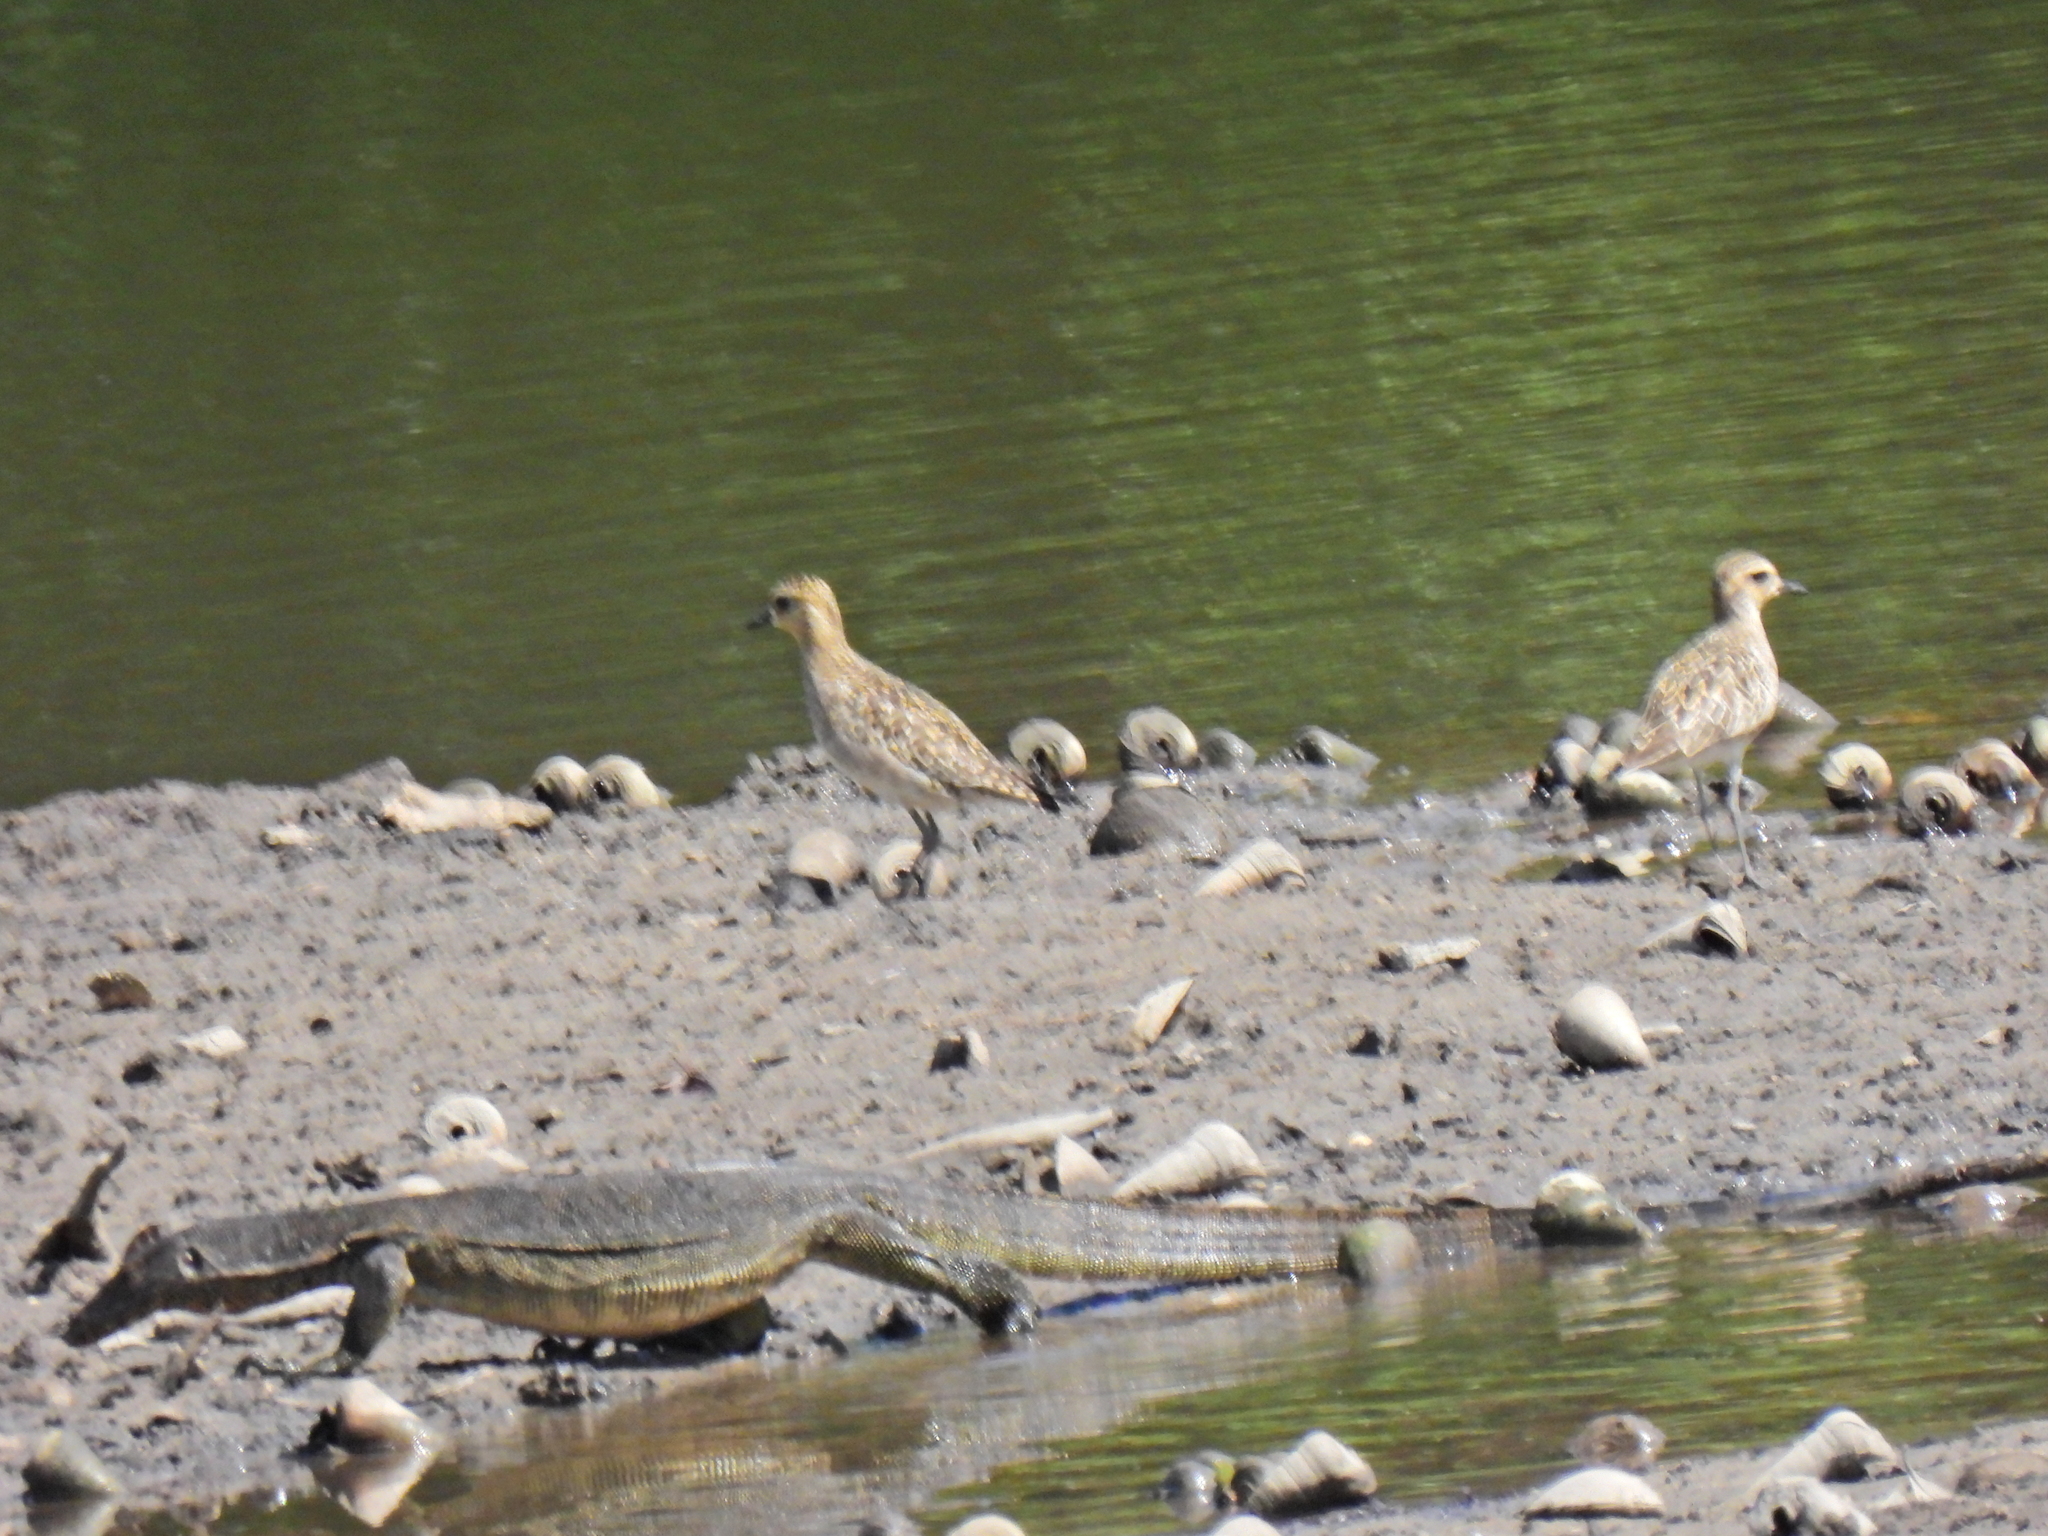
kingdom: Animalia
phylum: Chordata
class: Squamata
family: Varanidae
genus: Varanus
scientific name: Varanus salvator
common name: Common water monitor
